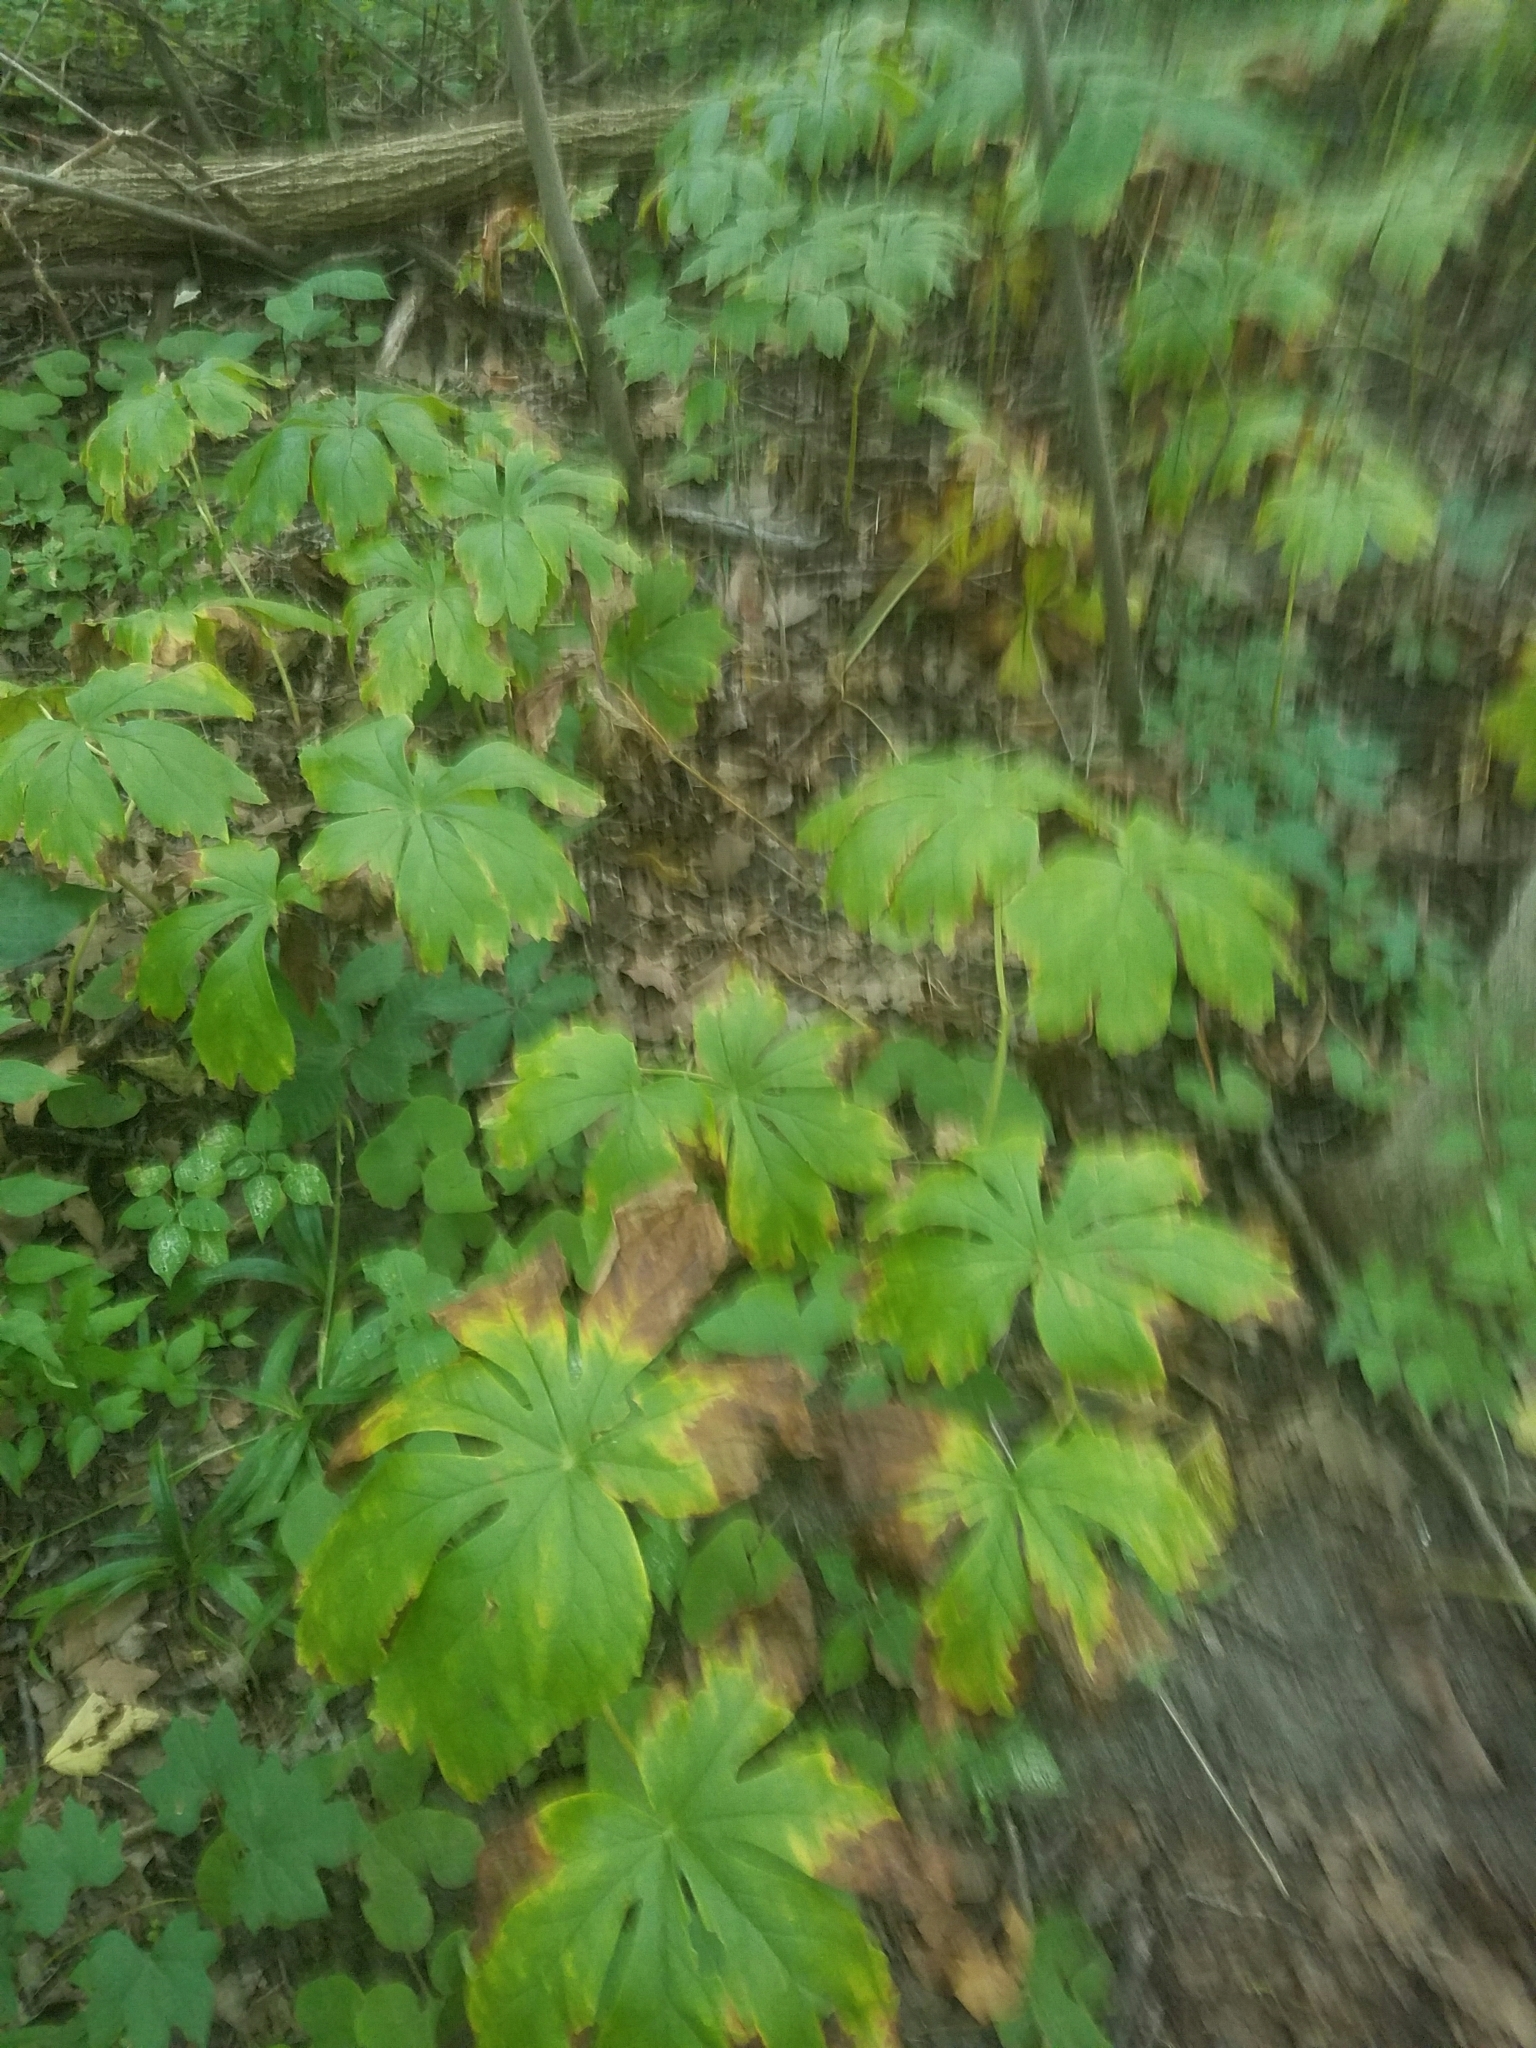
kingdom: Plantae
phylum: Tracheophyta
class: Magnoliopsida
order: Ranunculales
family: Berberidaceae
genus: Podophyllum
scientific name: Podophyllum peltatum
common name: Wild mandrake
